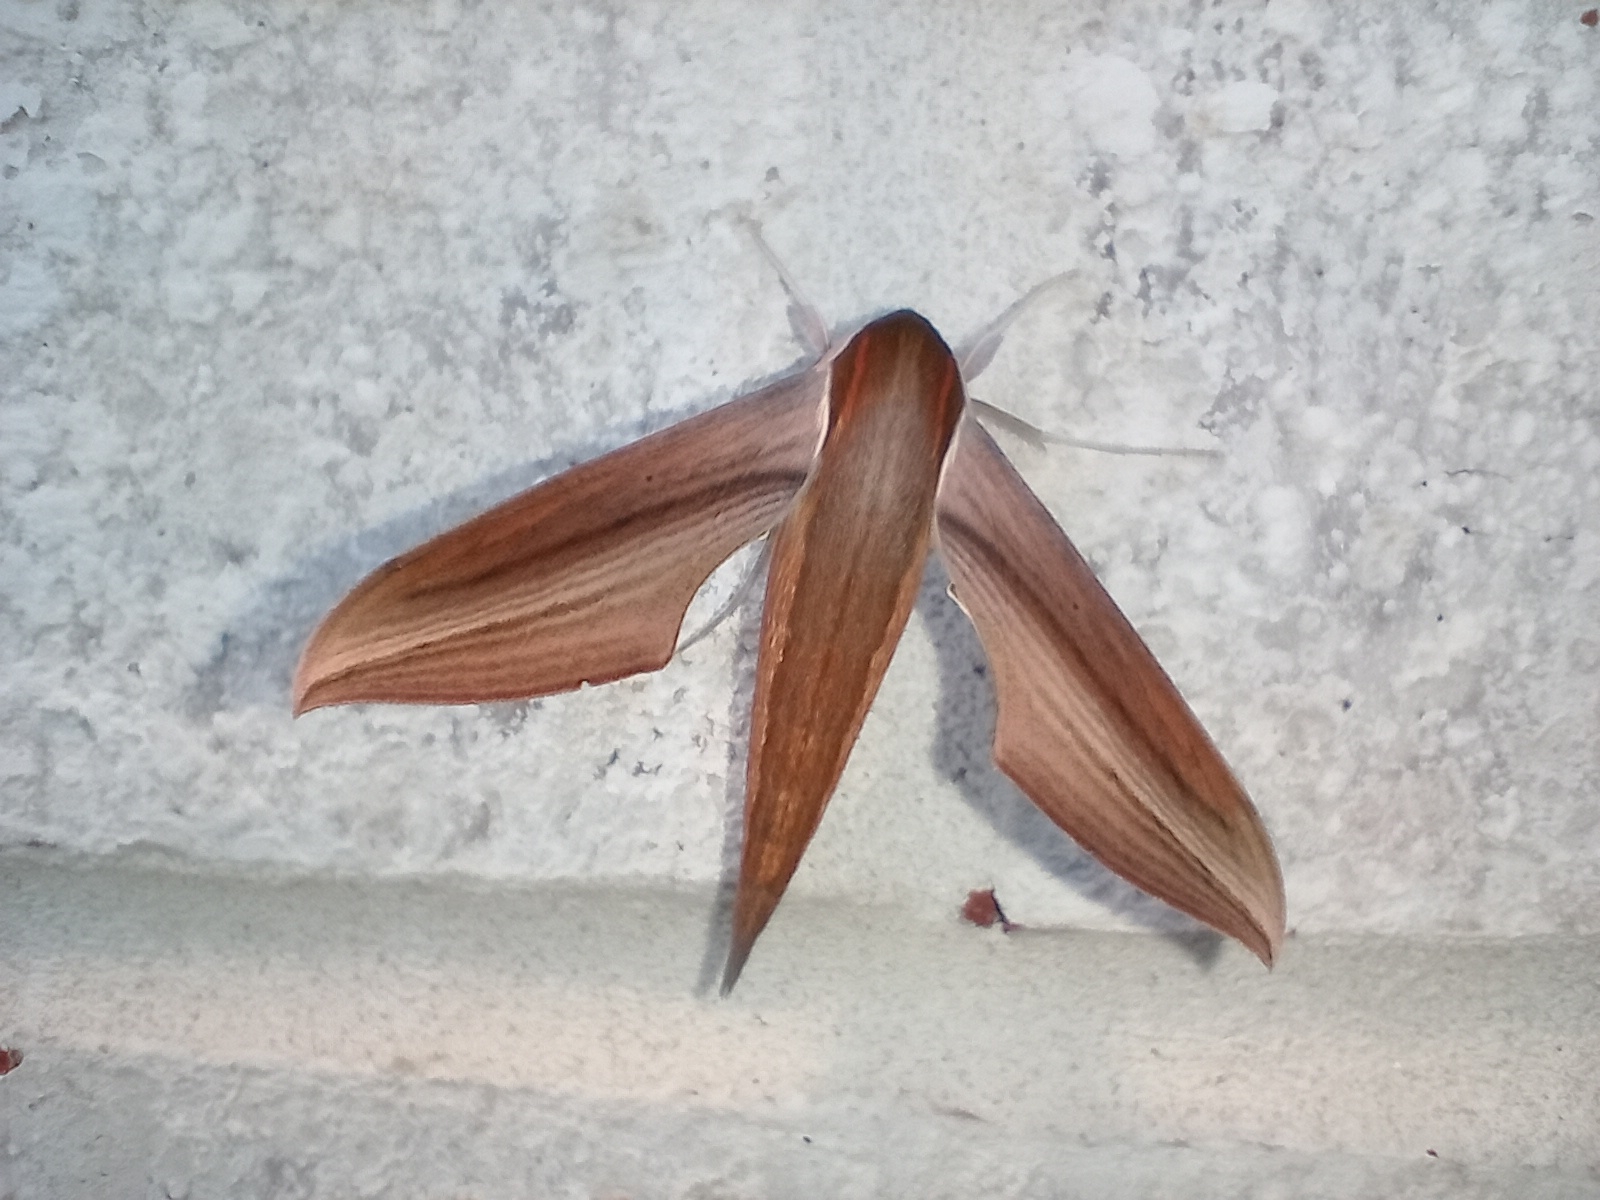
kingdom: Animalia
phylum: Arthropoda
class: Insecta
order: Lepidoptera
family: Sphingidae
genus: Xylophanes
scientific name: Xylophanes tersa
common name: Tersa sphinx
